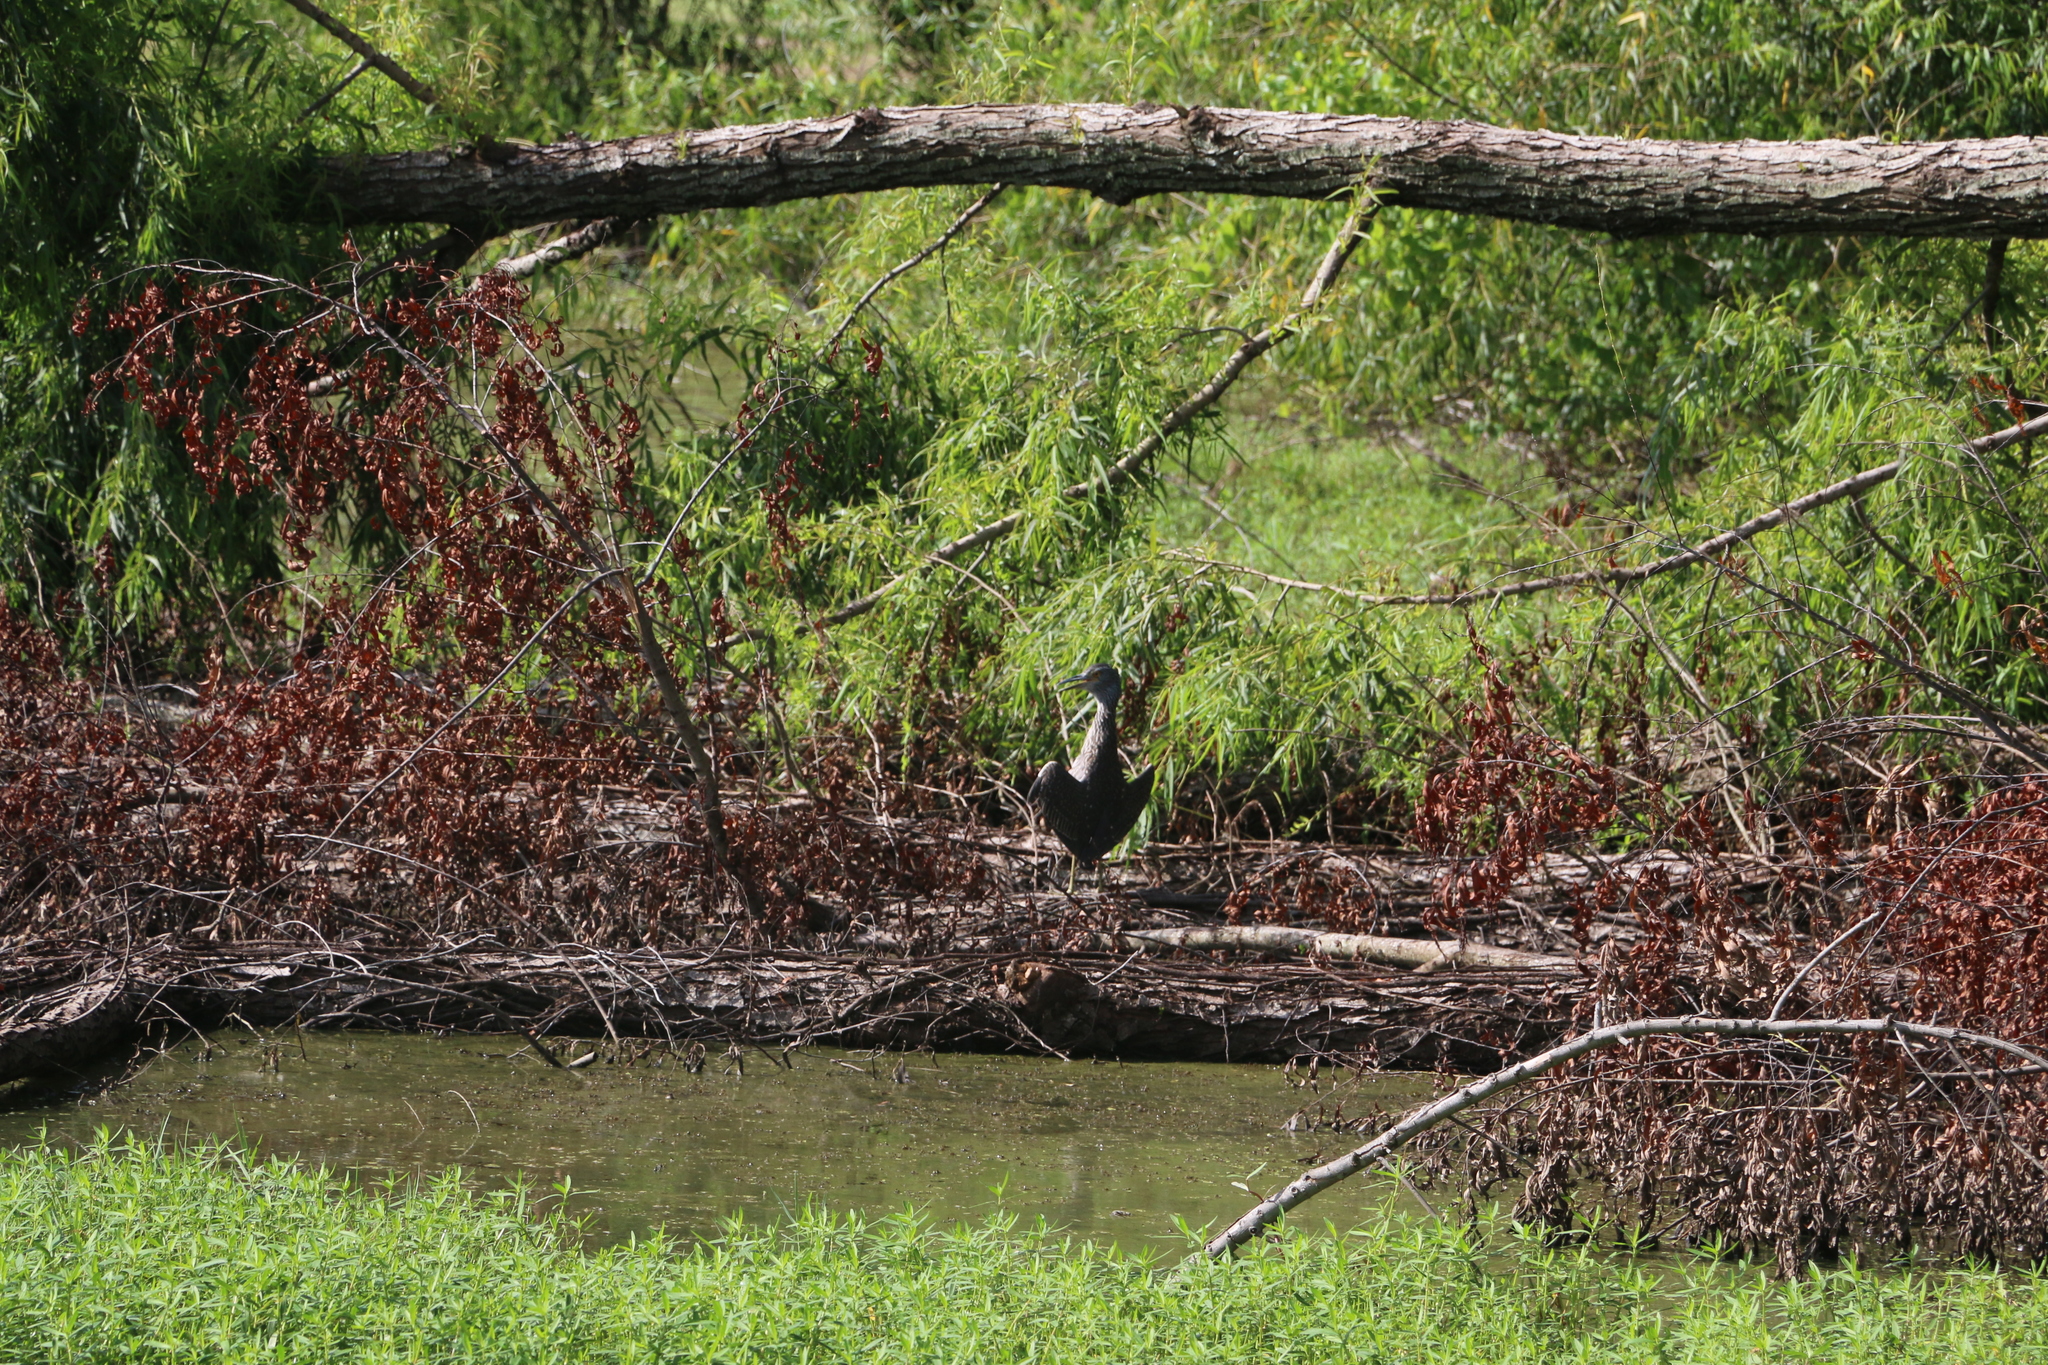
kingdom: Animalia
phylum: Chordata
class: Aves
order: Pelecaniformes
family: Ardeidae
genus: Nyctanassa
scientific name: Nyctanassa violacea
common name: Yellow-crowned night heron
